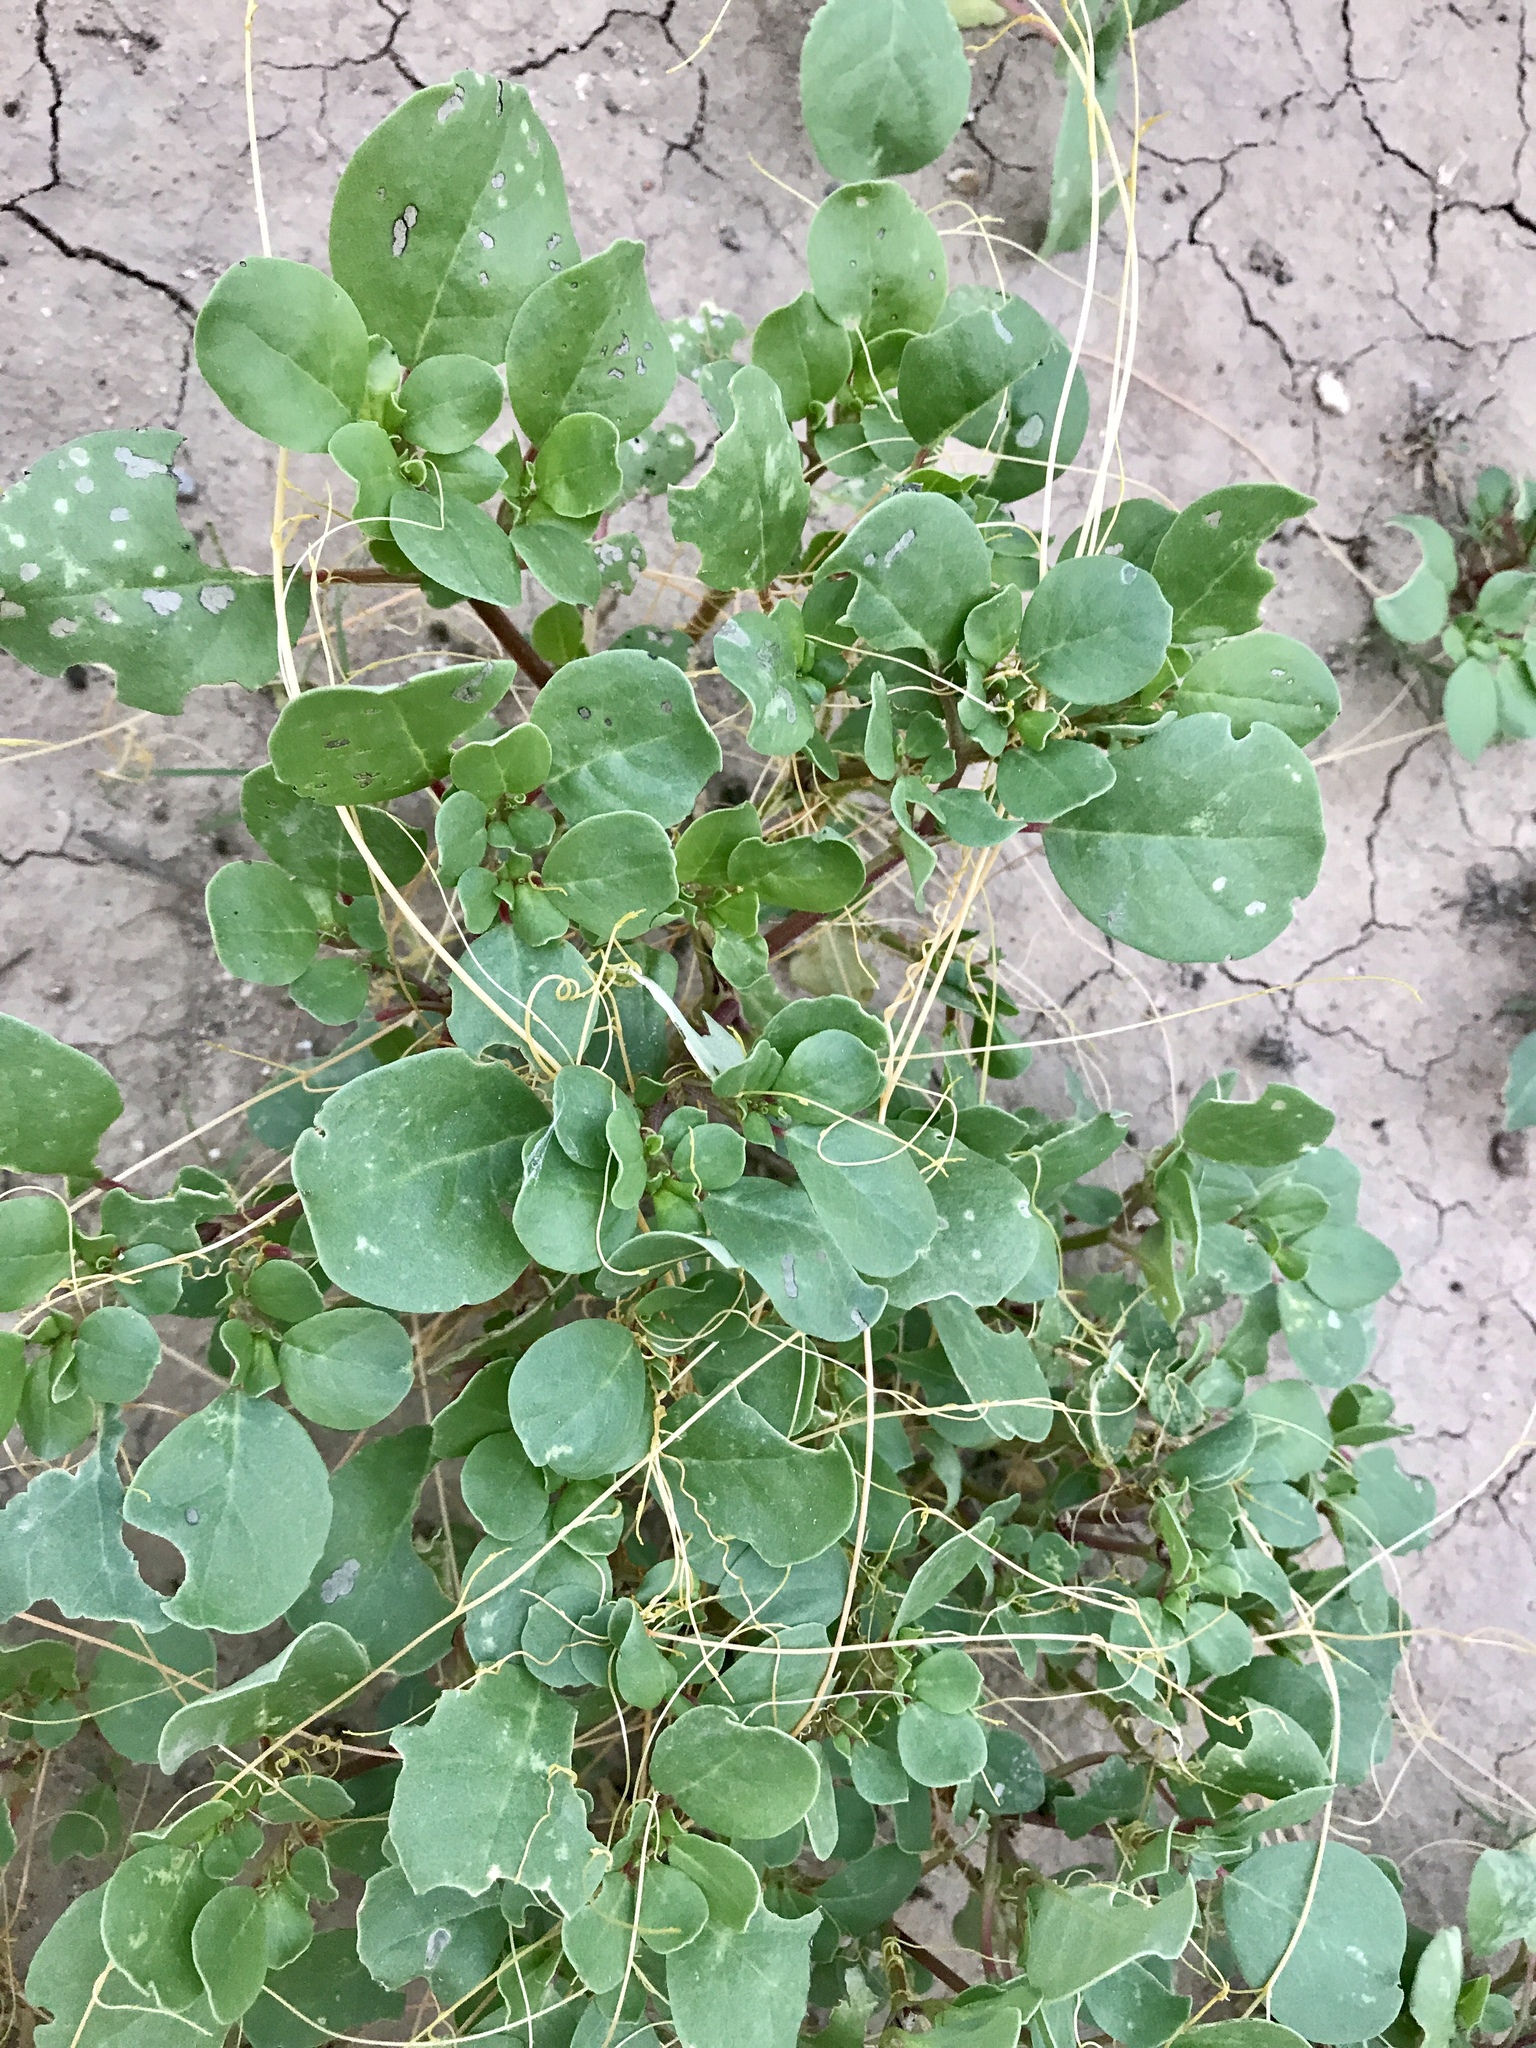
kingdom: Plantae
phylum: Tracheophyta
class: Magnoliopsida
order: Caryophyllales
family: Aizoaceae
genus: Trianthema
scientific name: Trianthema portulacastrum
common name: Desert horsepurslane
